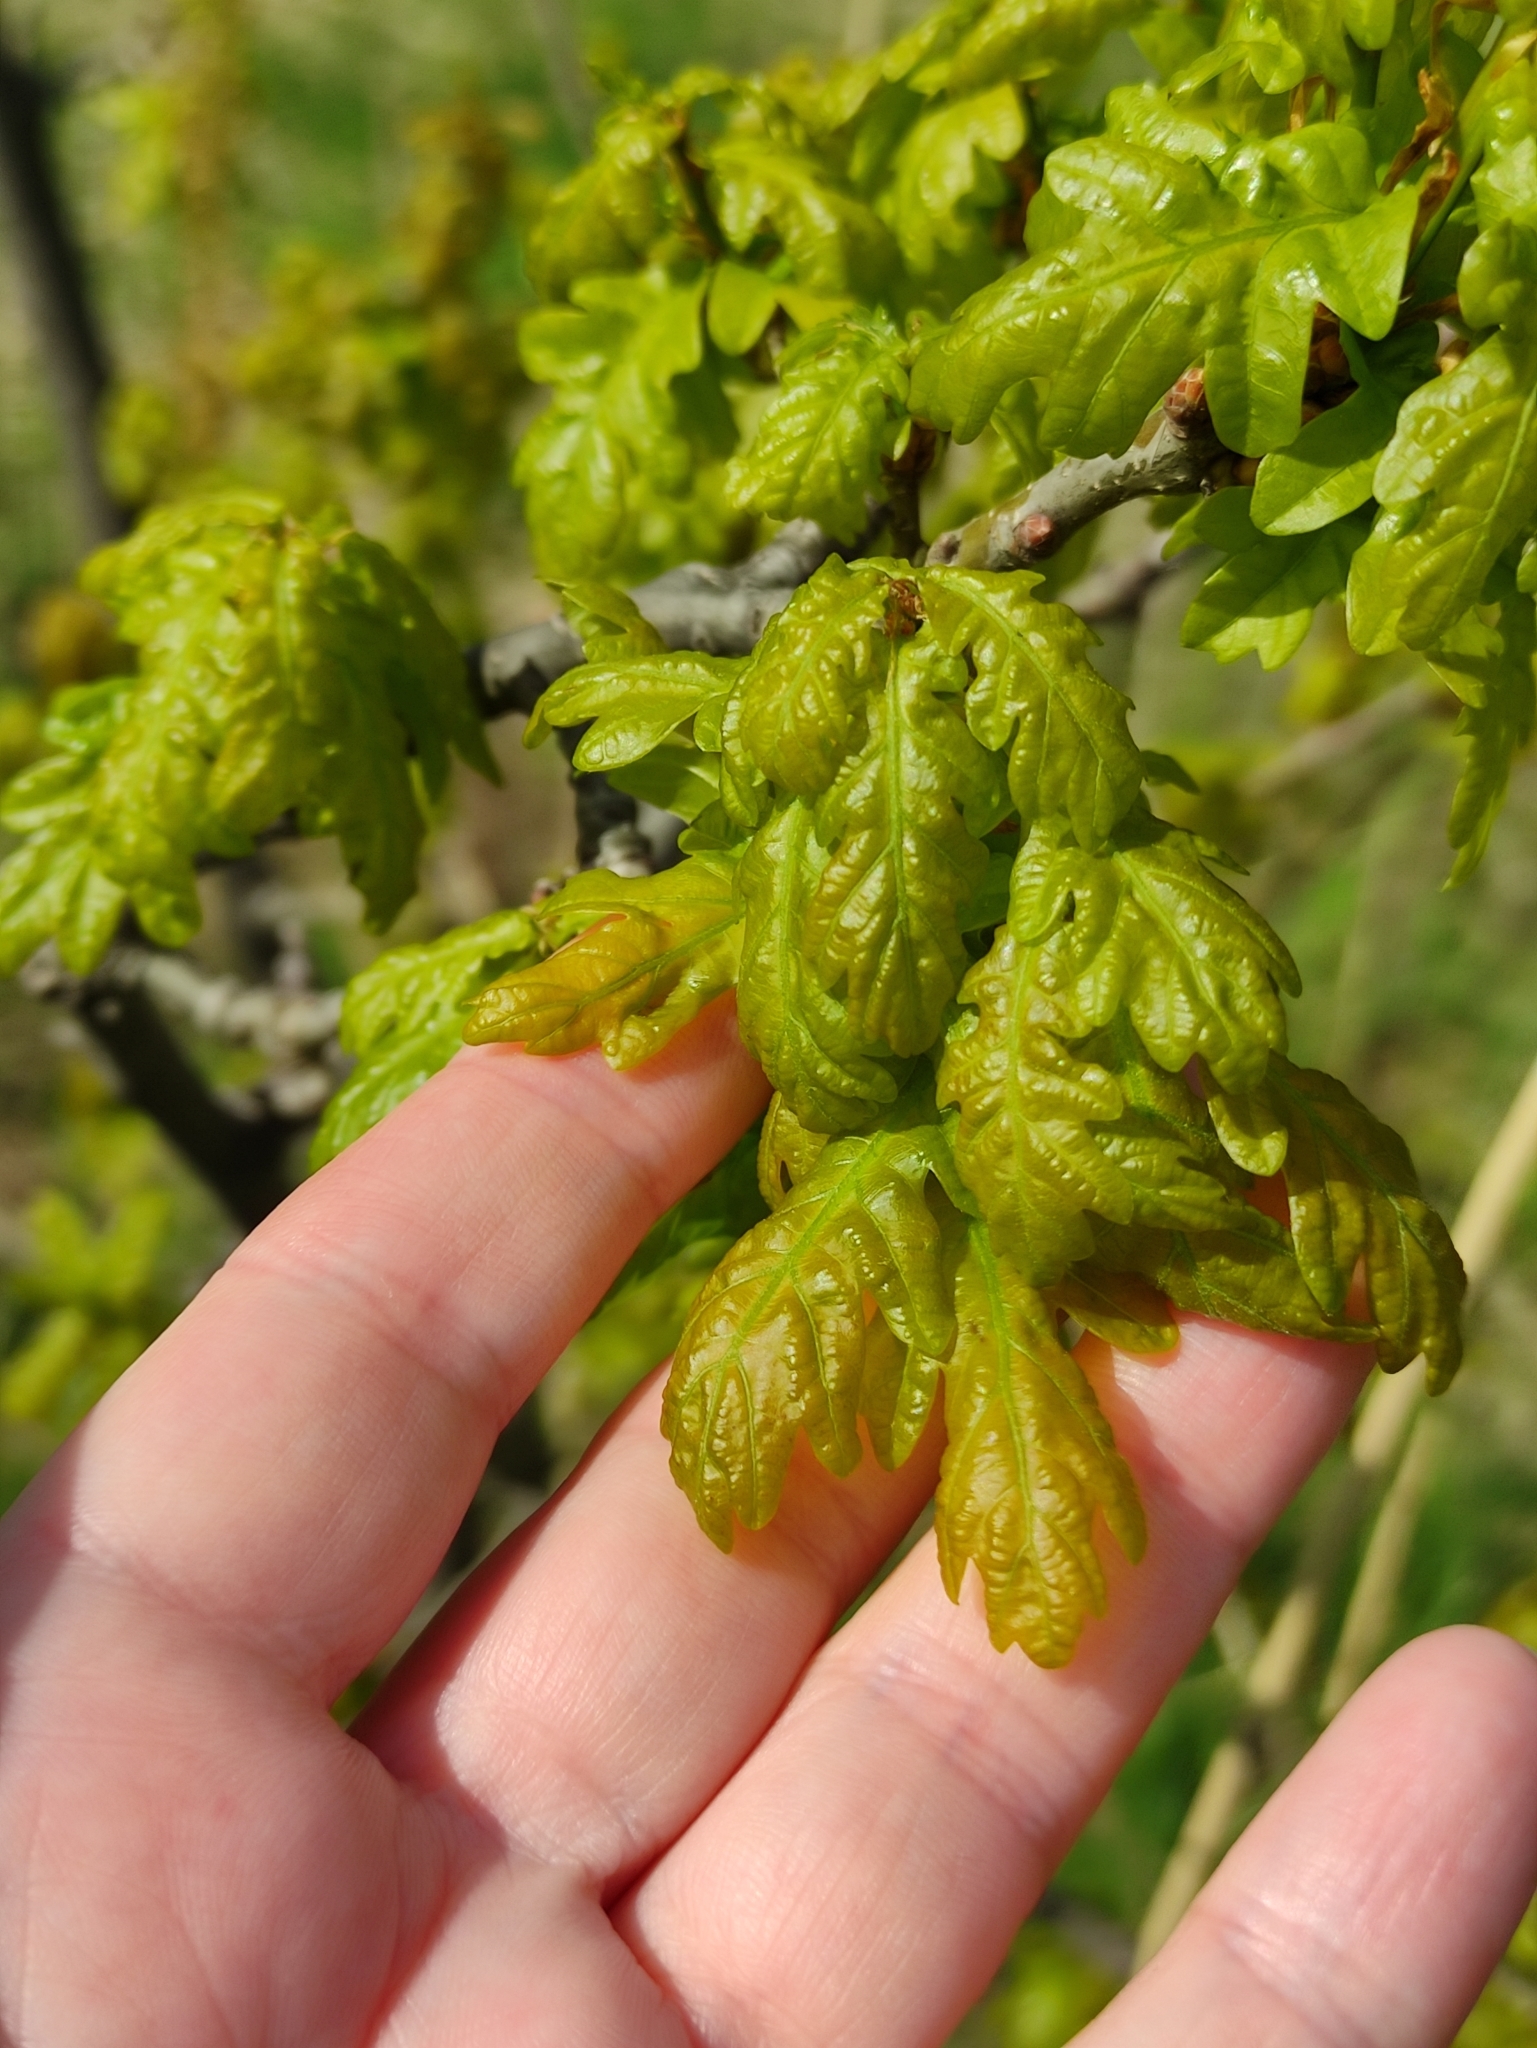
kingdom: Plantae
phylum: Tracheophyta
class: Magnoliopsida
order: Fagales
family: Fagaceae
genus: Quercus
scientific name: Quercus robur
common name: Pedunculate oak
